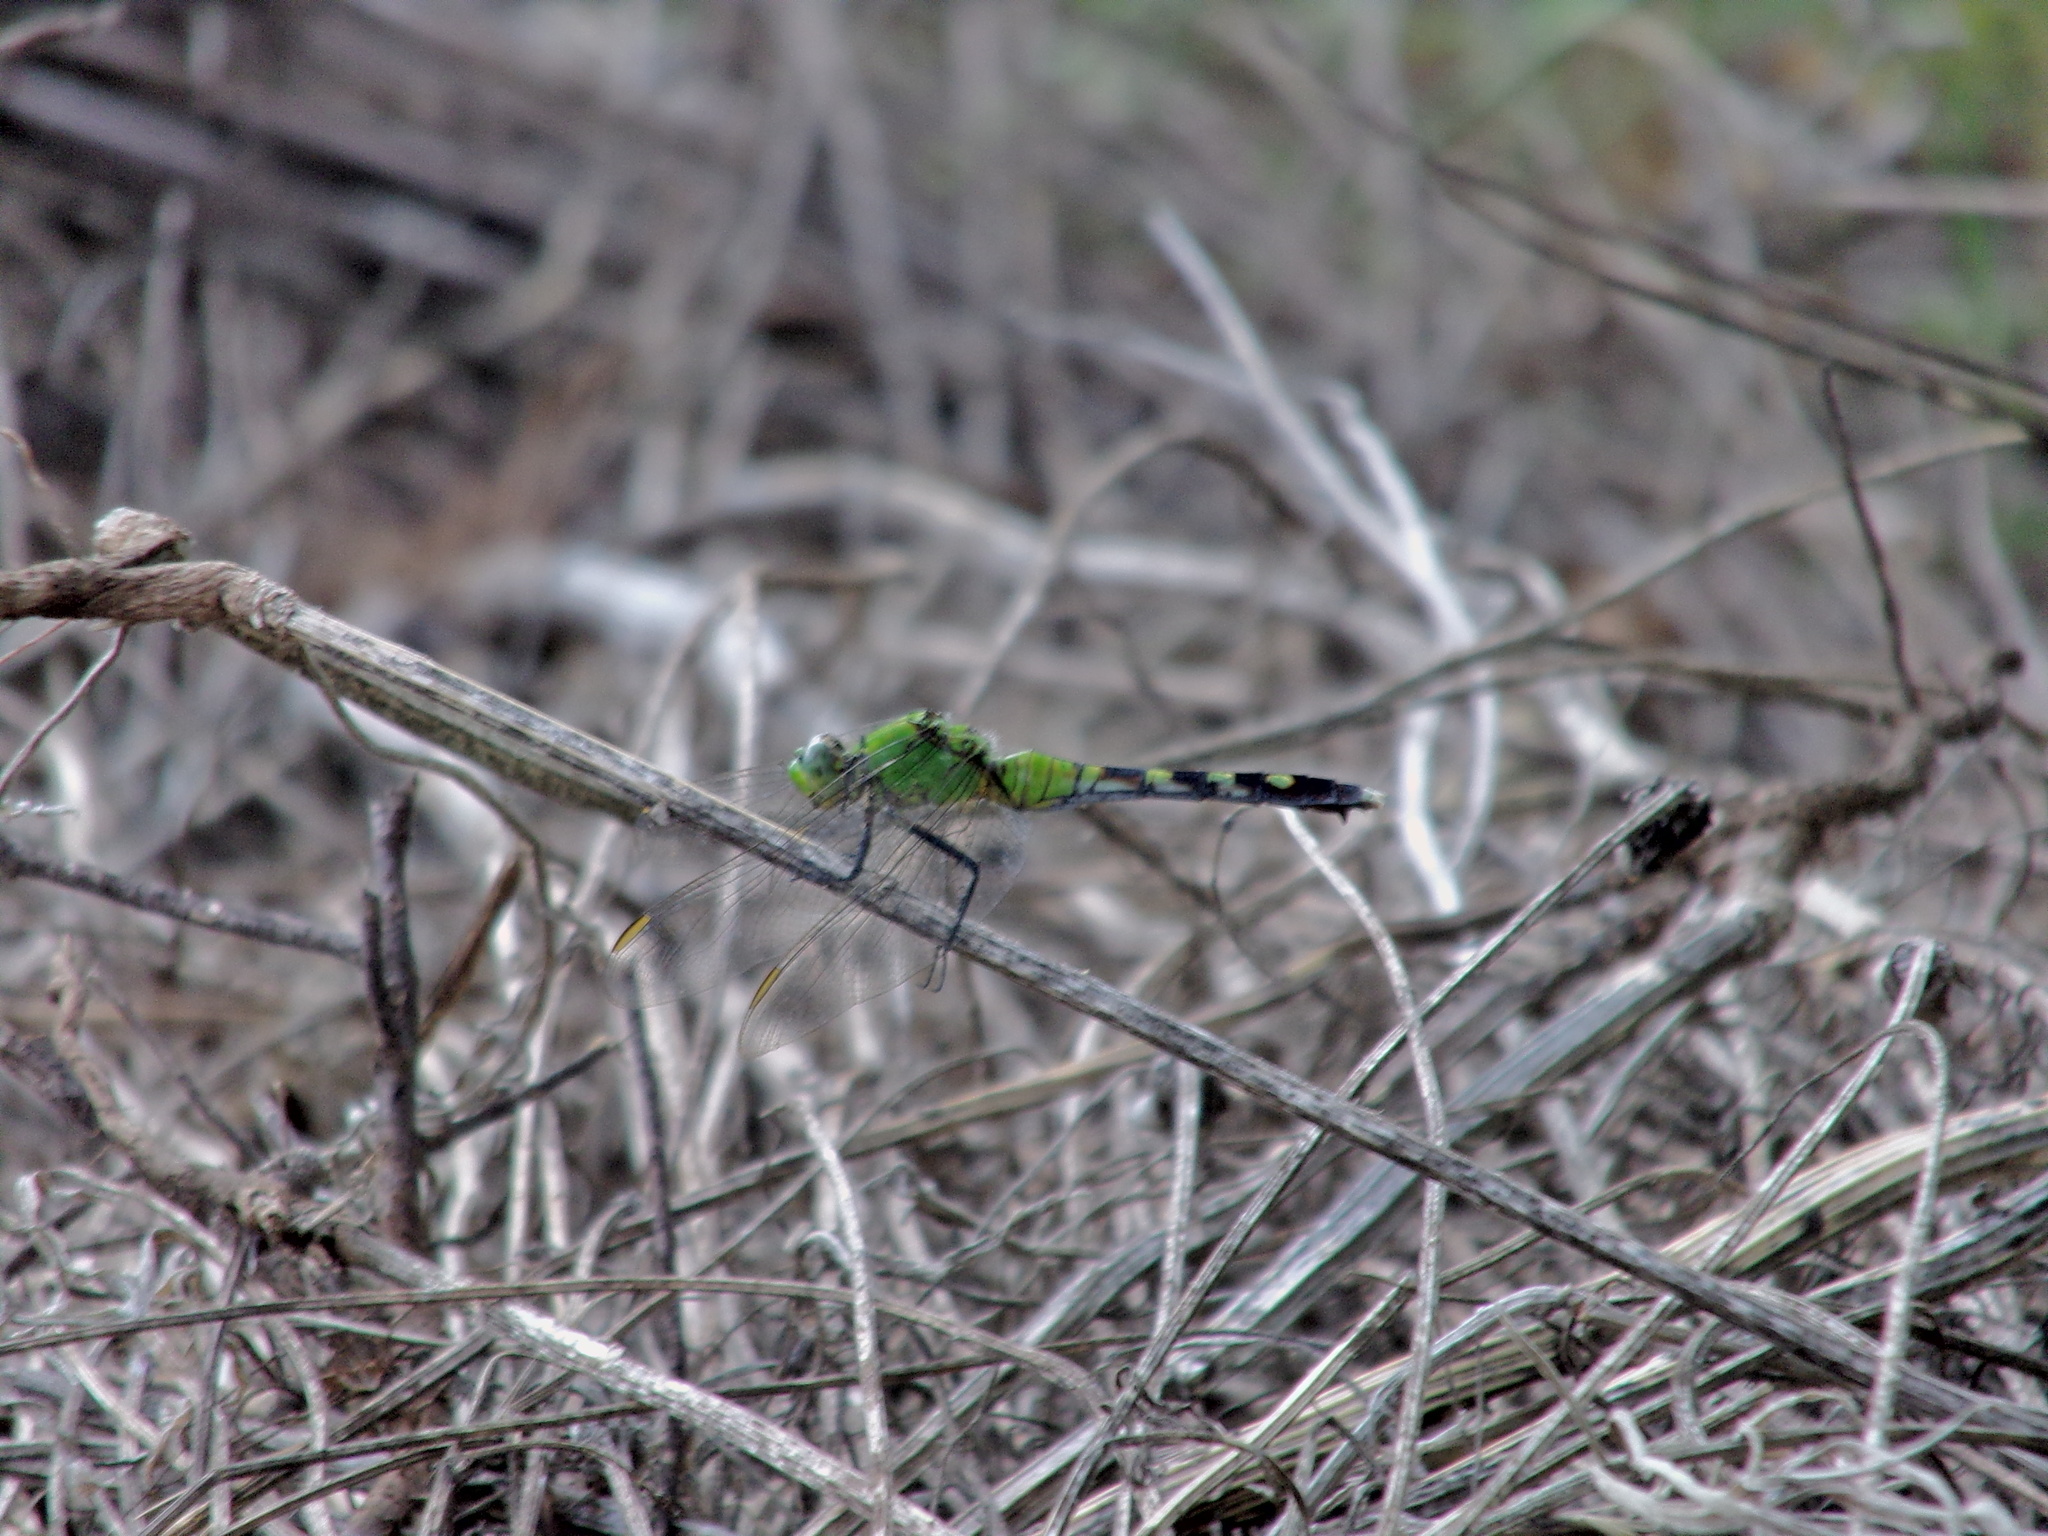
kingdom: Animalia
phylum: Arthropoda
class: Insecta
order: Odonata
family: Libellulidae
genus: Erythemis
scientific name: Erythemis simplicicollis
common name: Eastern pondhawk
